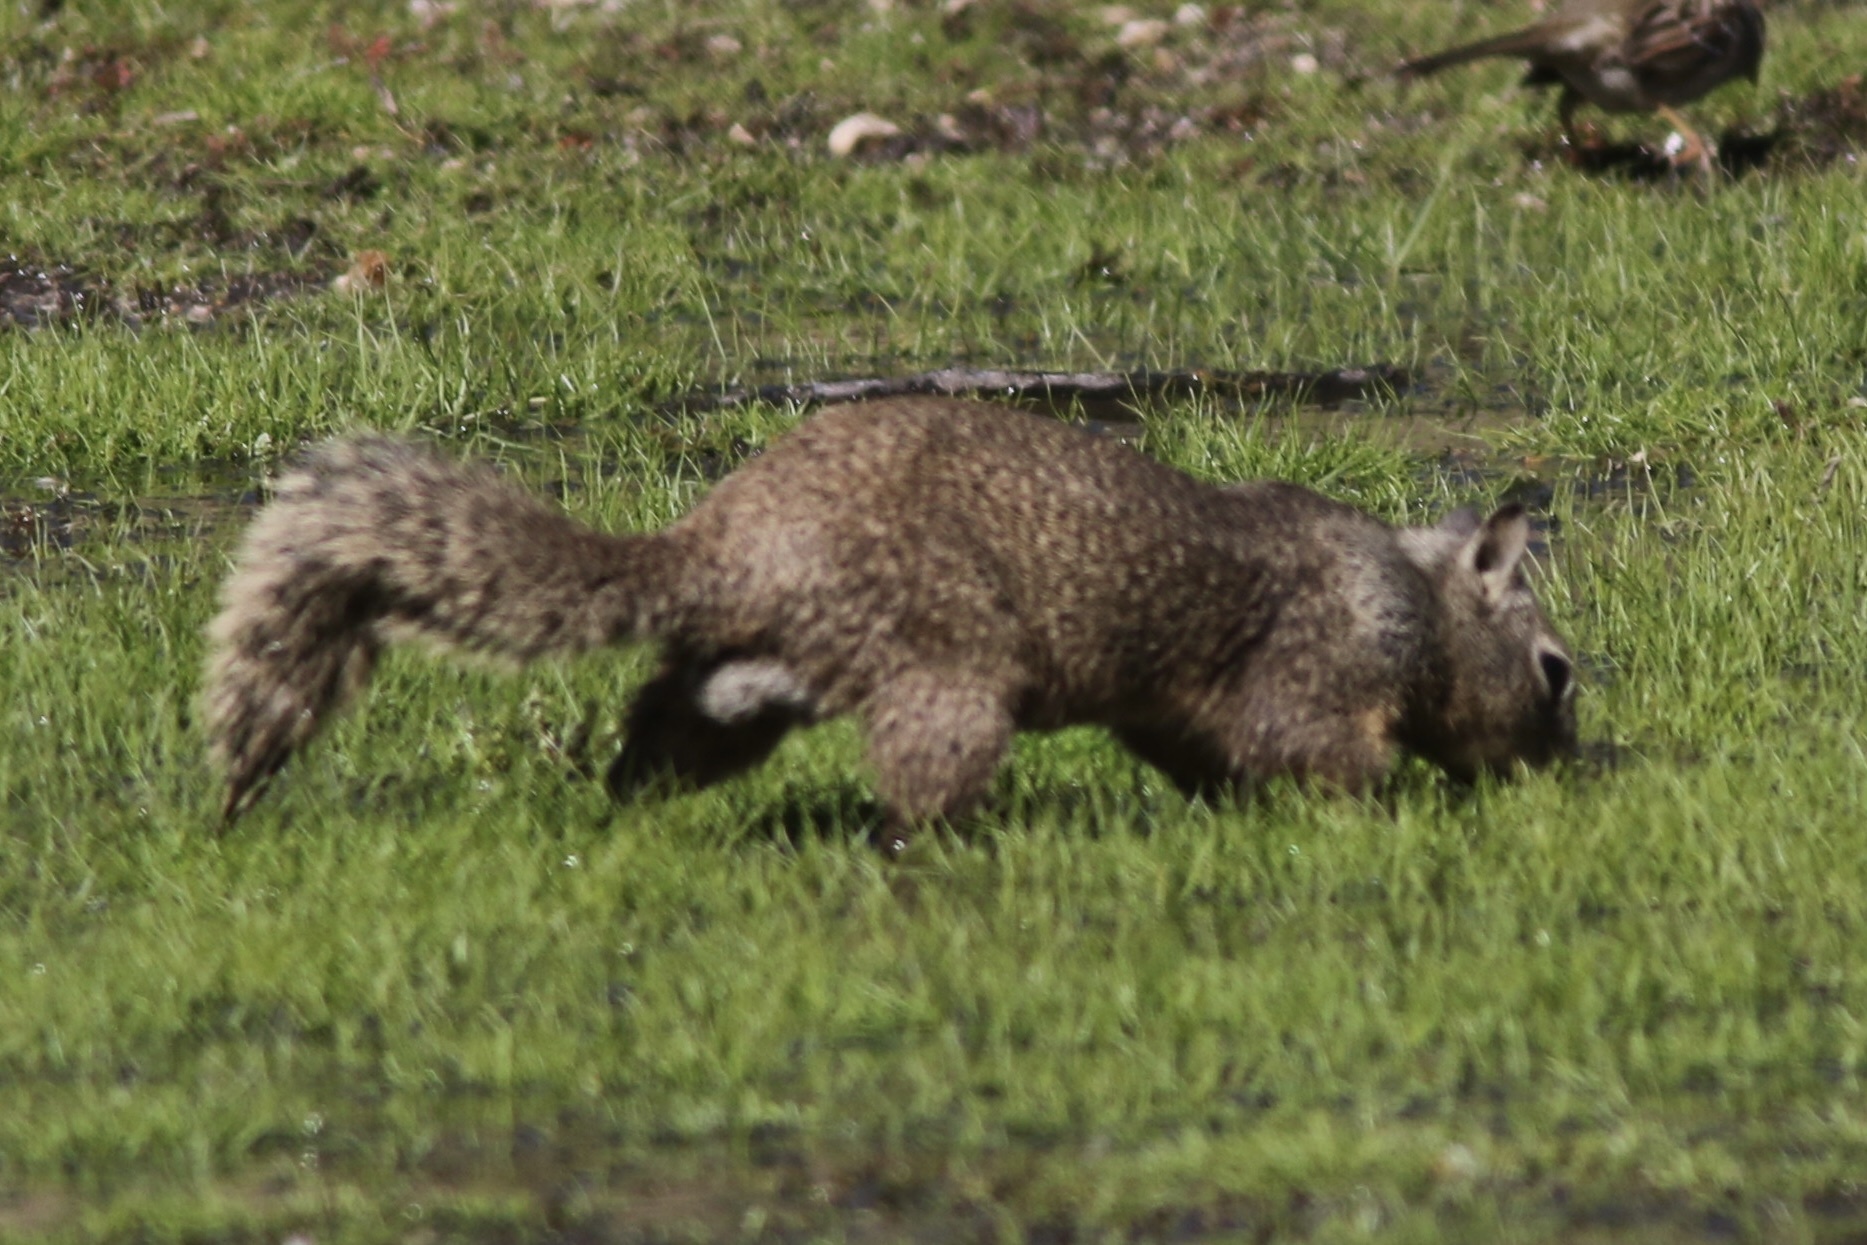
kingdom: Animalia
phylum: Chordata
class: Mammalia
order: Rodentia
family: Sciuridae
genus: Otospermophilus
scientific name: Otospermophilus beecheyi
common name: California ground squirrel
